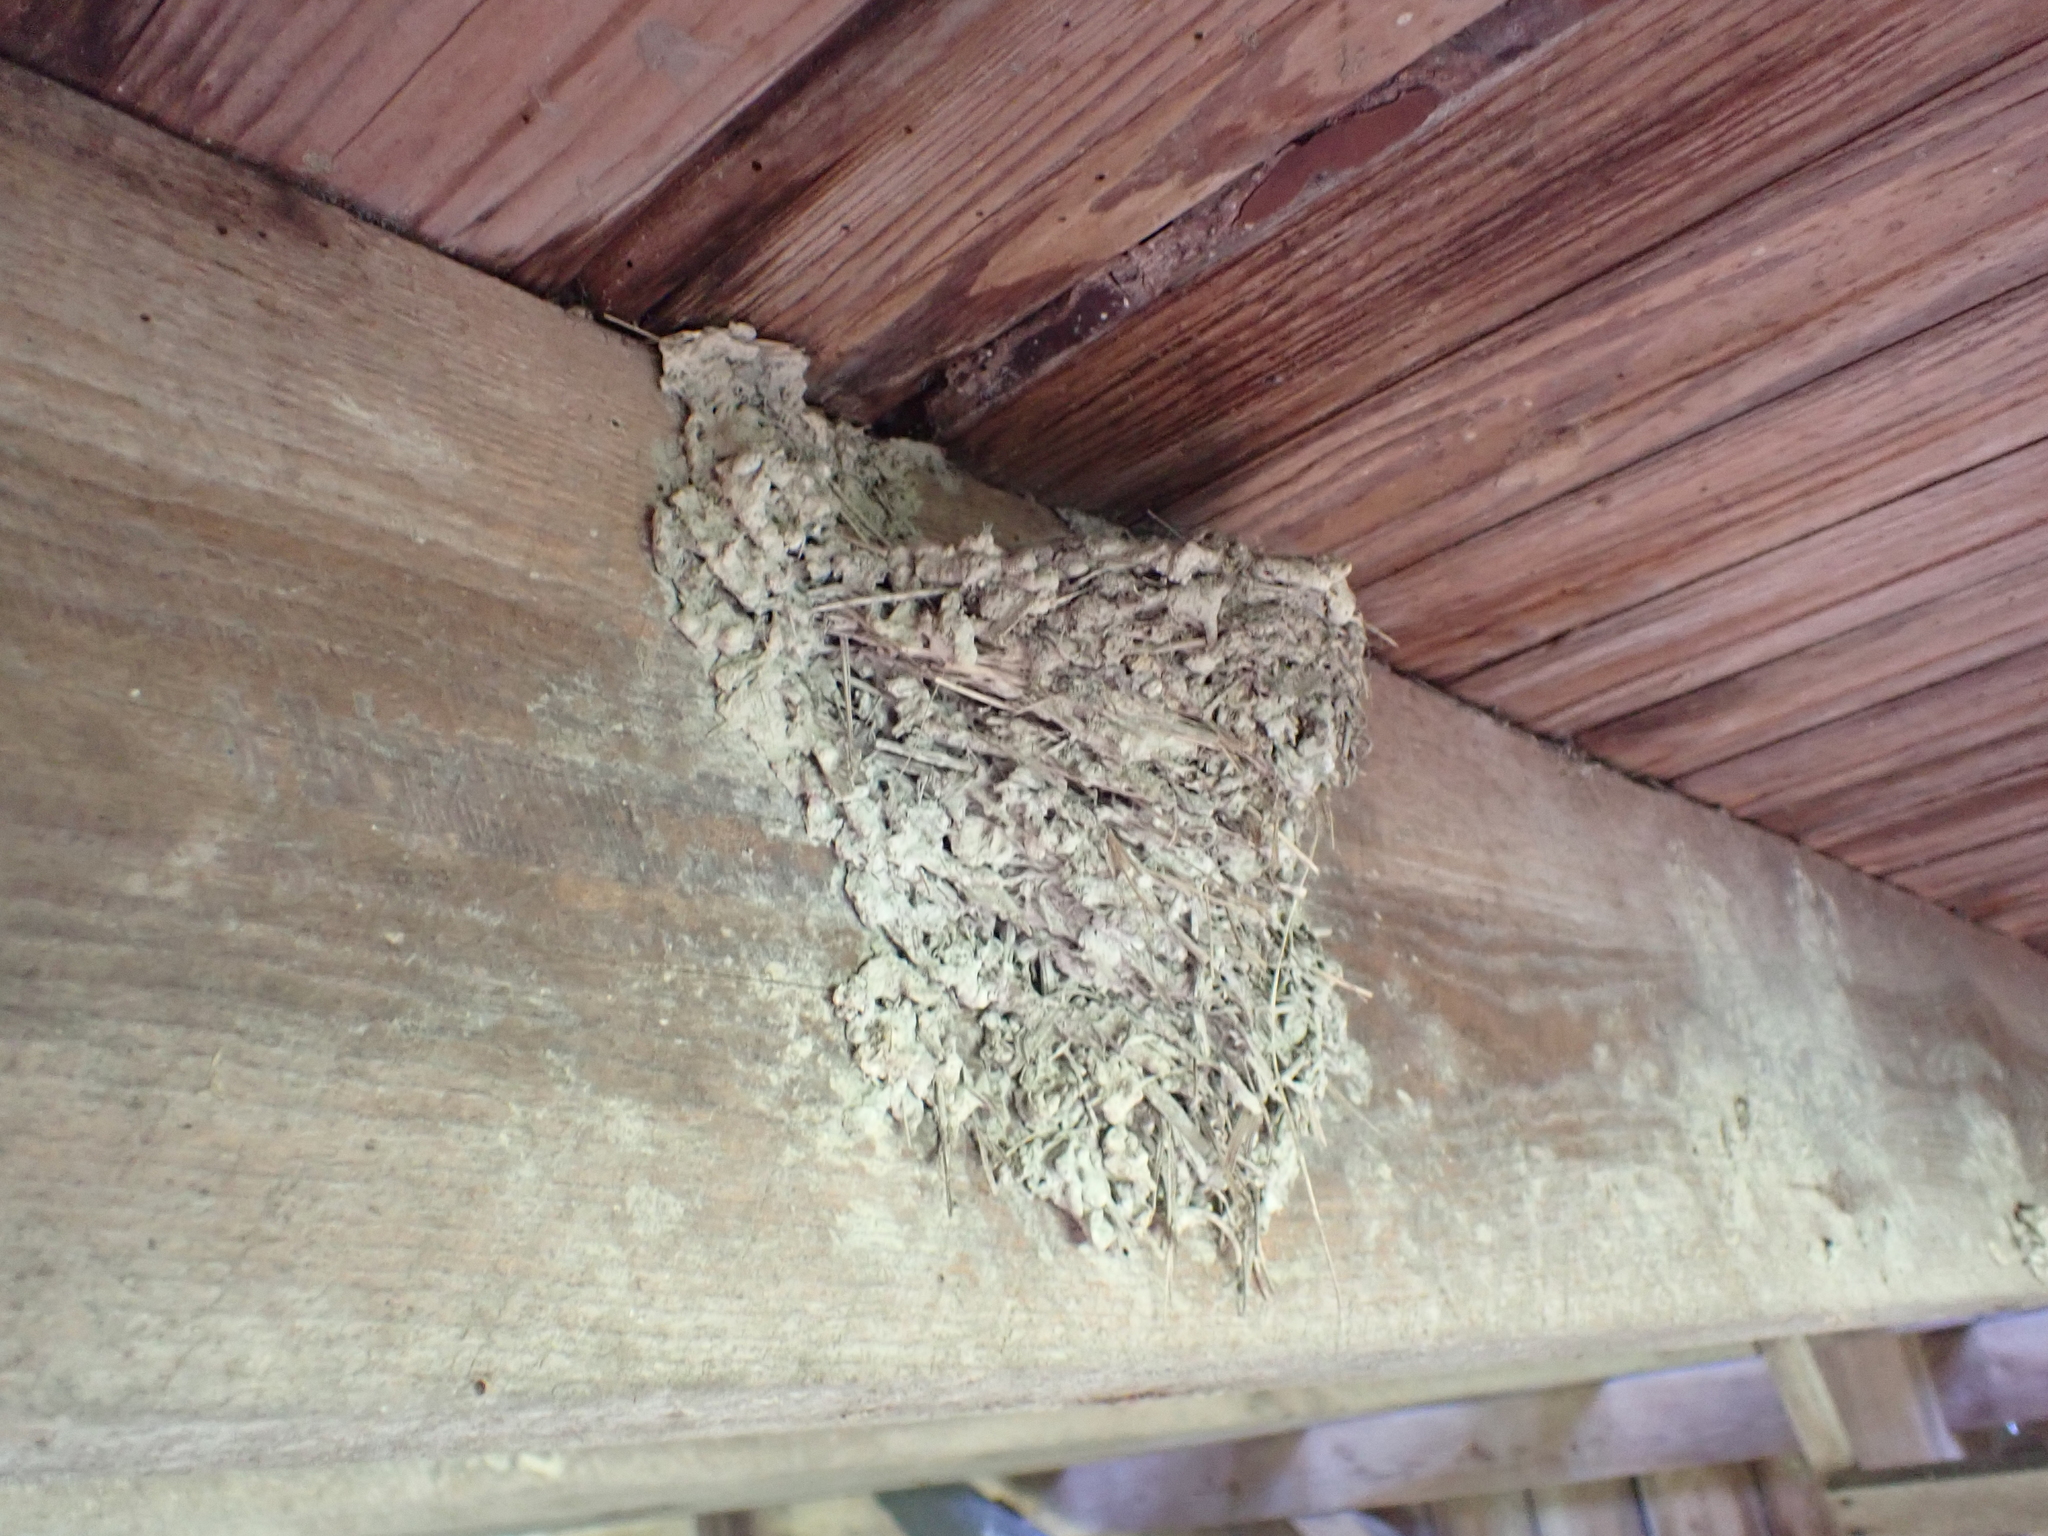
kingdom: Animalia
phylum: Chordata
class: Aves
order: Passeriformes
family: Hirundinidae
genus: Hirundo
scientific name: Hirundo rustica
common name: Barn swallow
